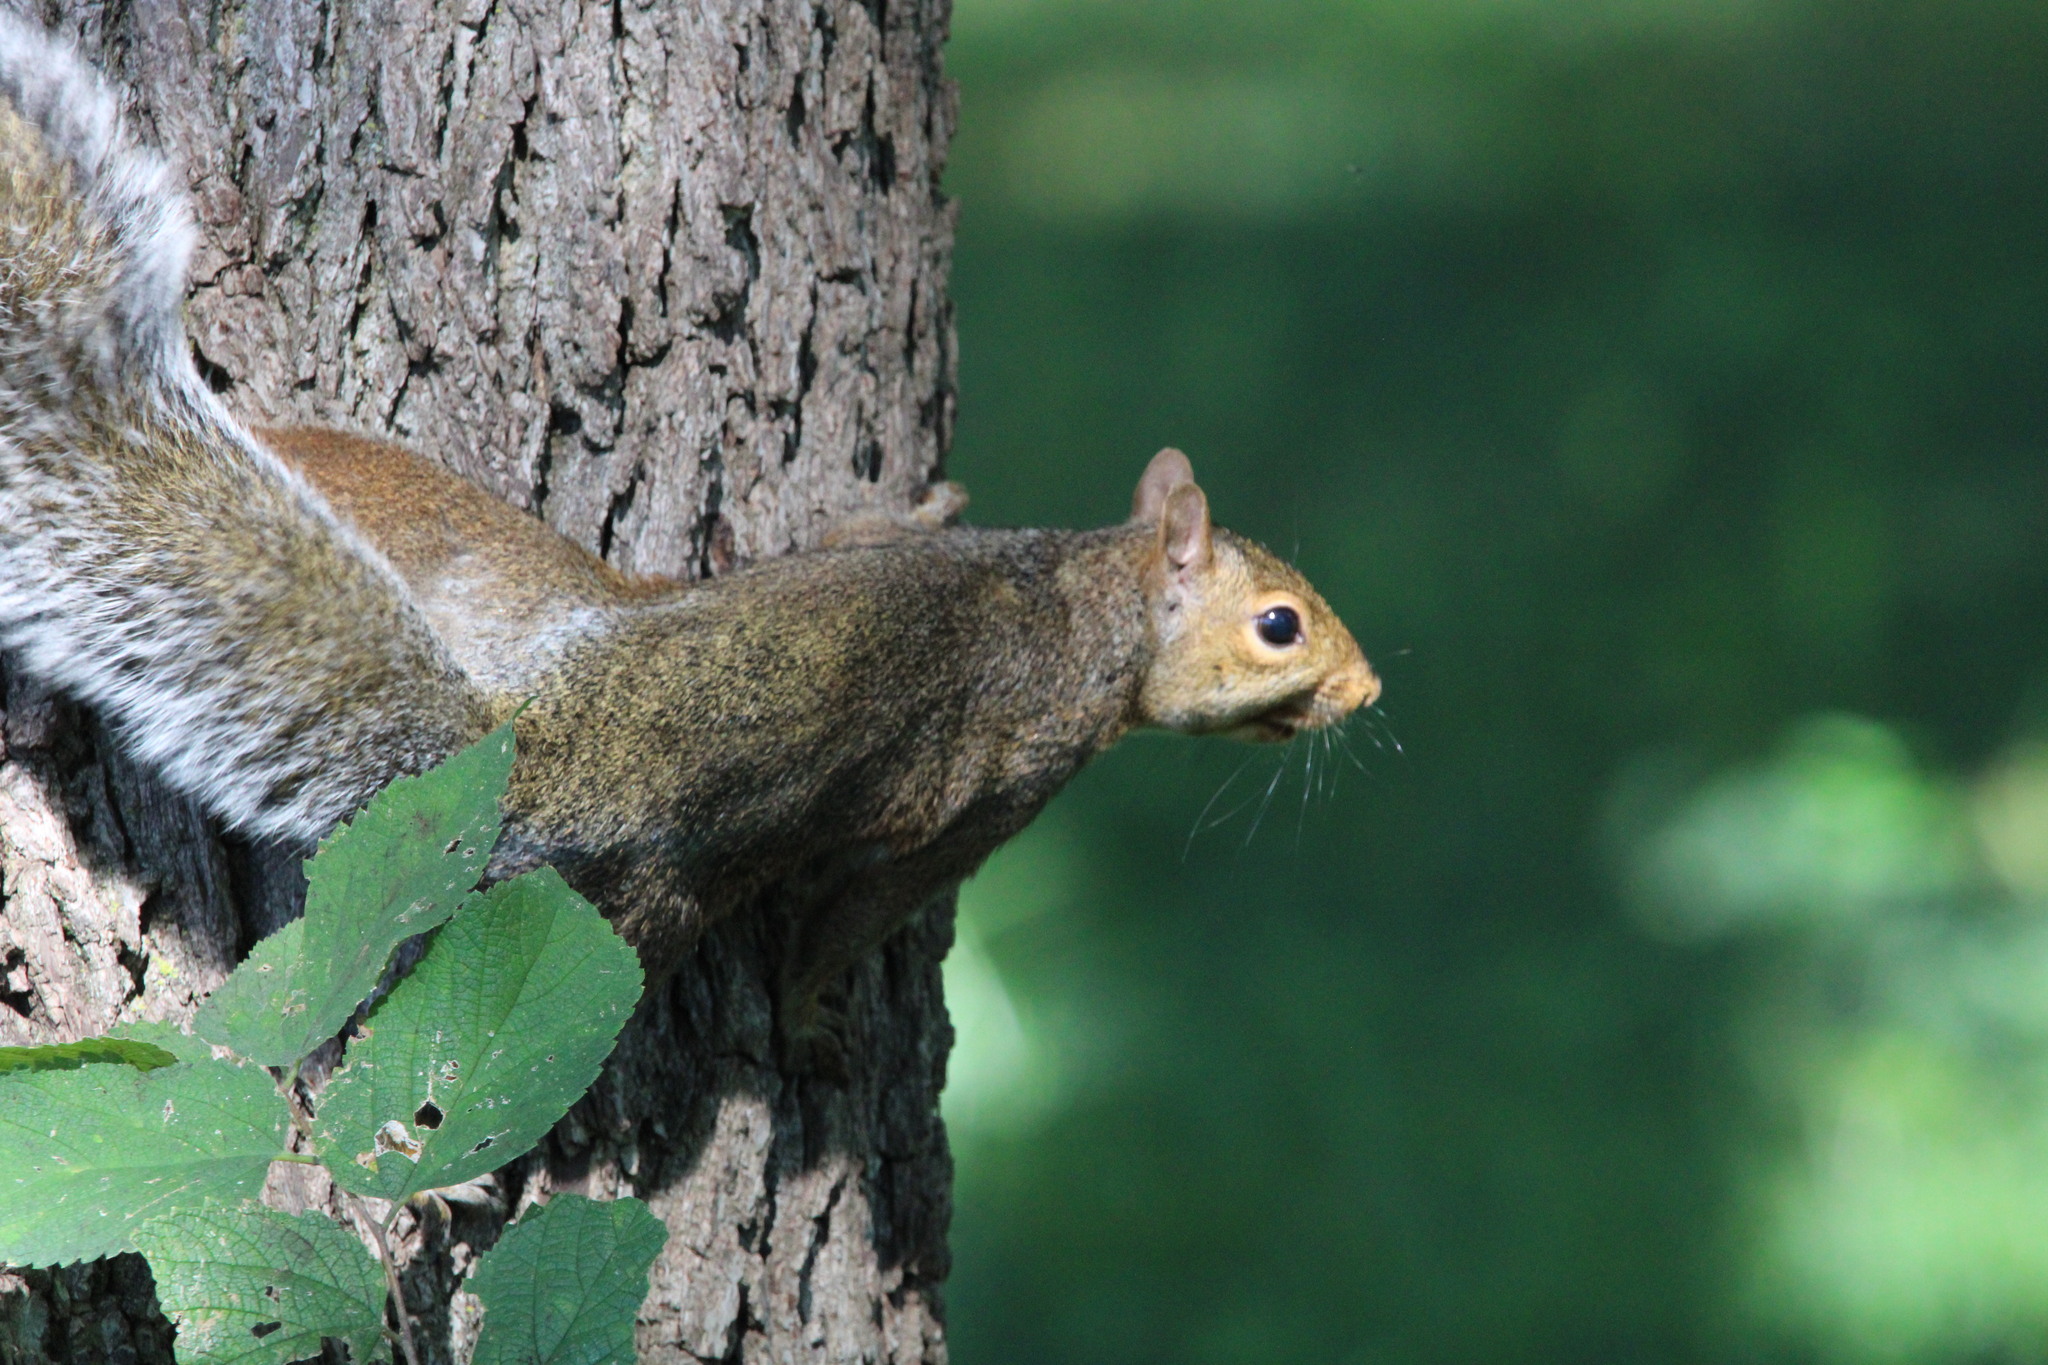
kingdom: Animalia
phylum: Chordata
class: Mammalia
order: Rodentia
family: Sciuridae
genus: Sciurus
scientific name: Sciurus carolinensis
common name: Eastern gray squirrel
